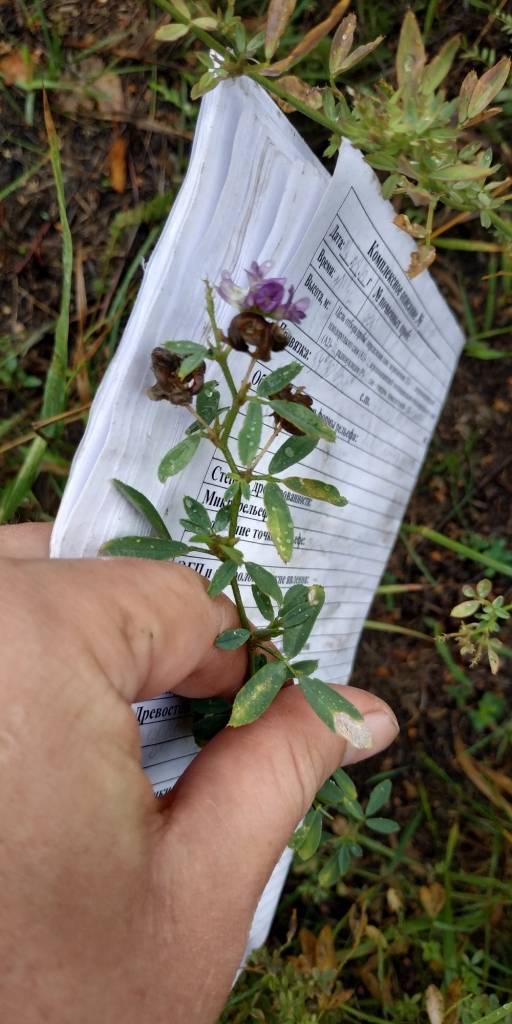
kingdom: Plantae
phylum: Tracheophyta
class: Magnoliopsida
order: Fabales
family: Fabaceae
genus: Medicago
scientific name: Medicago varia
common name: Sand lucerne
